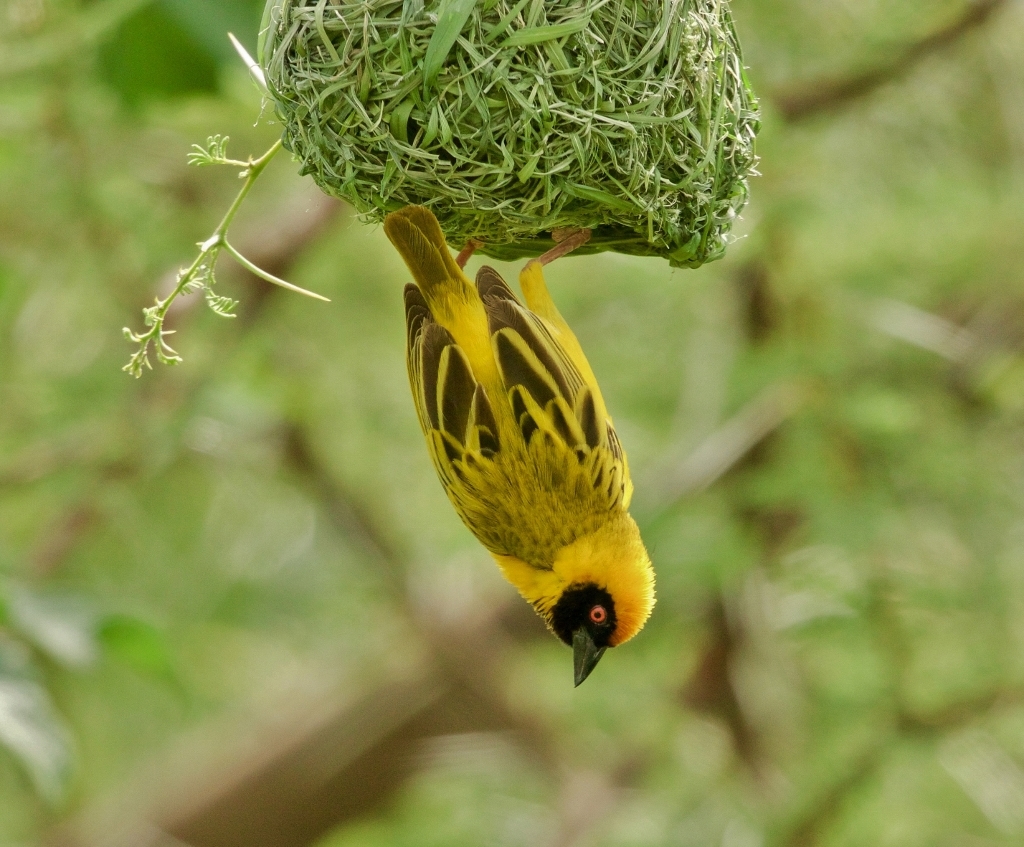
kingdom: Animalia
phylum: Chordata
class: Aves
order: Passeriformes
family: Ploceidae
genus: Ploceus
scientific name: Ploceus velatus
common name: Southern masked weaver
